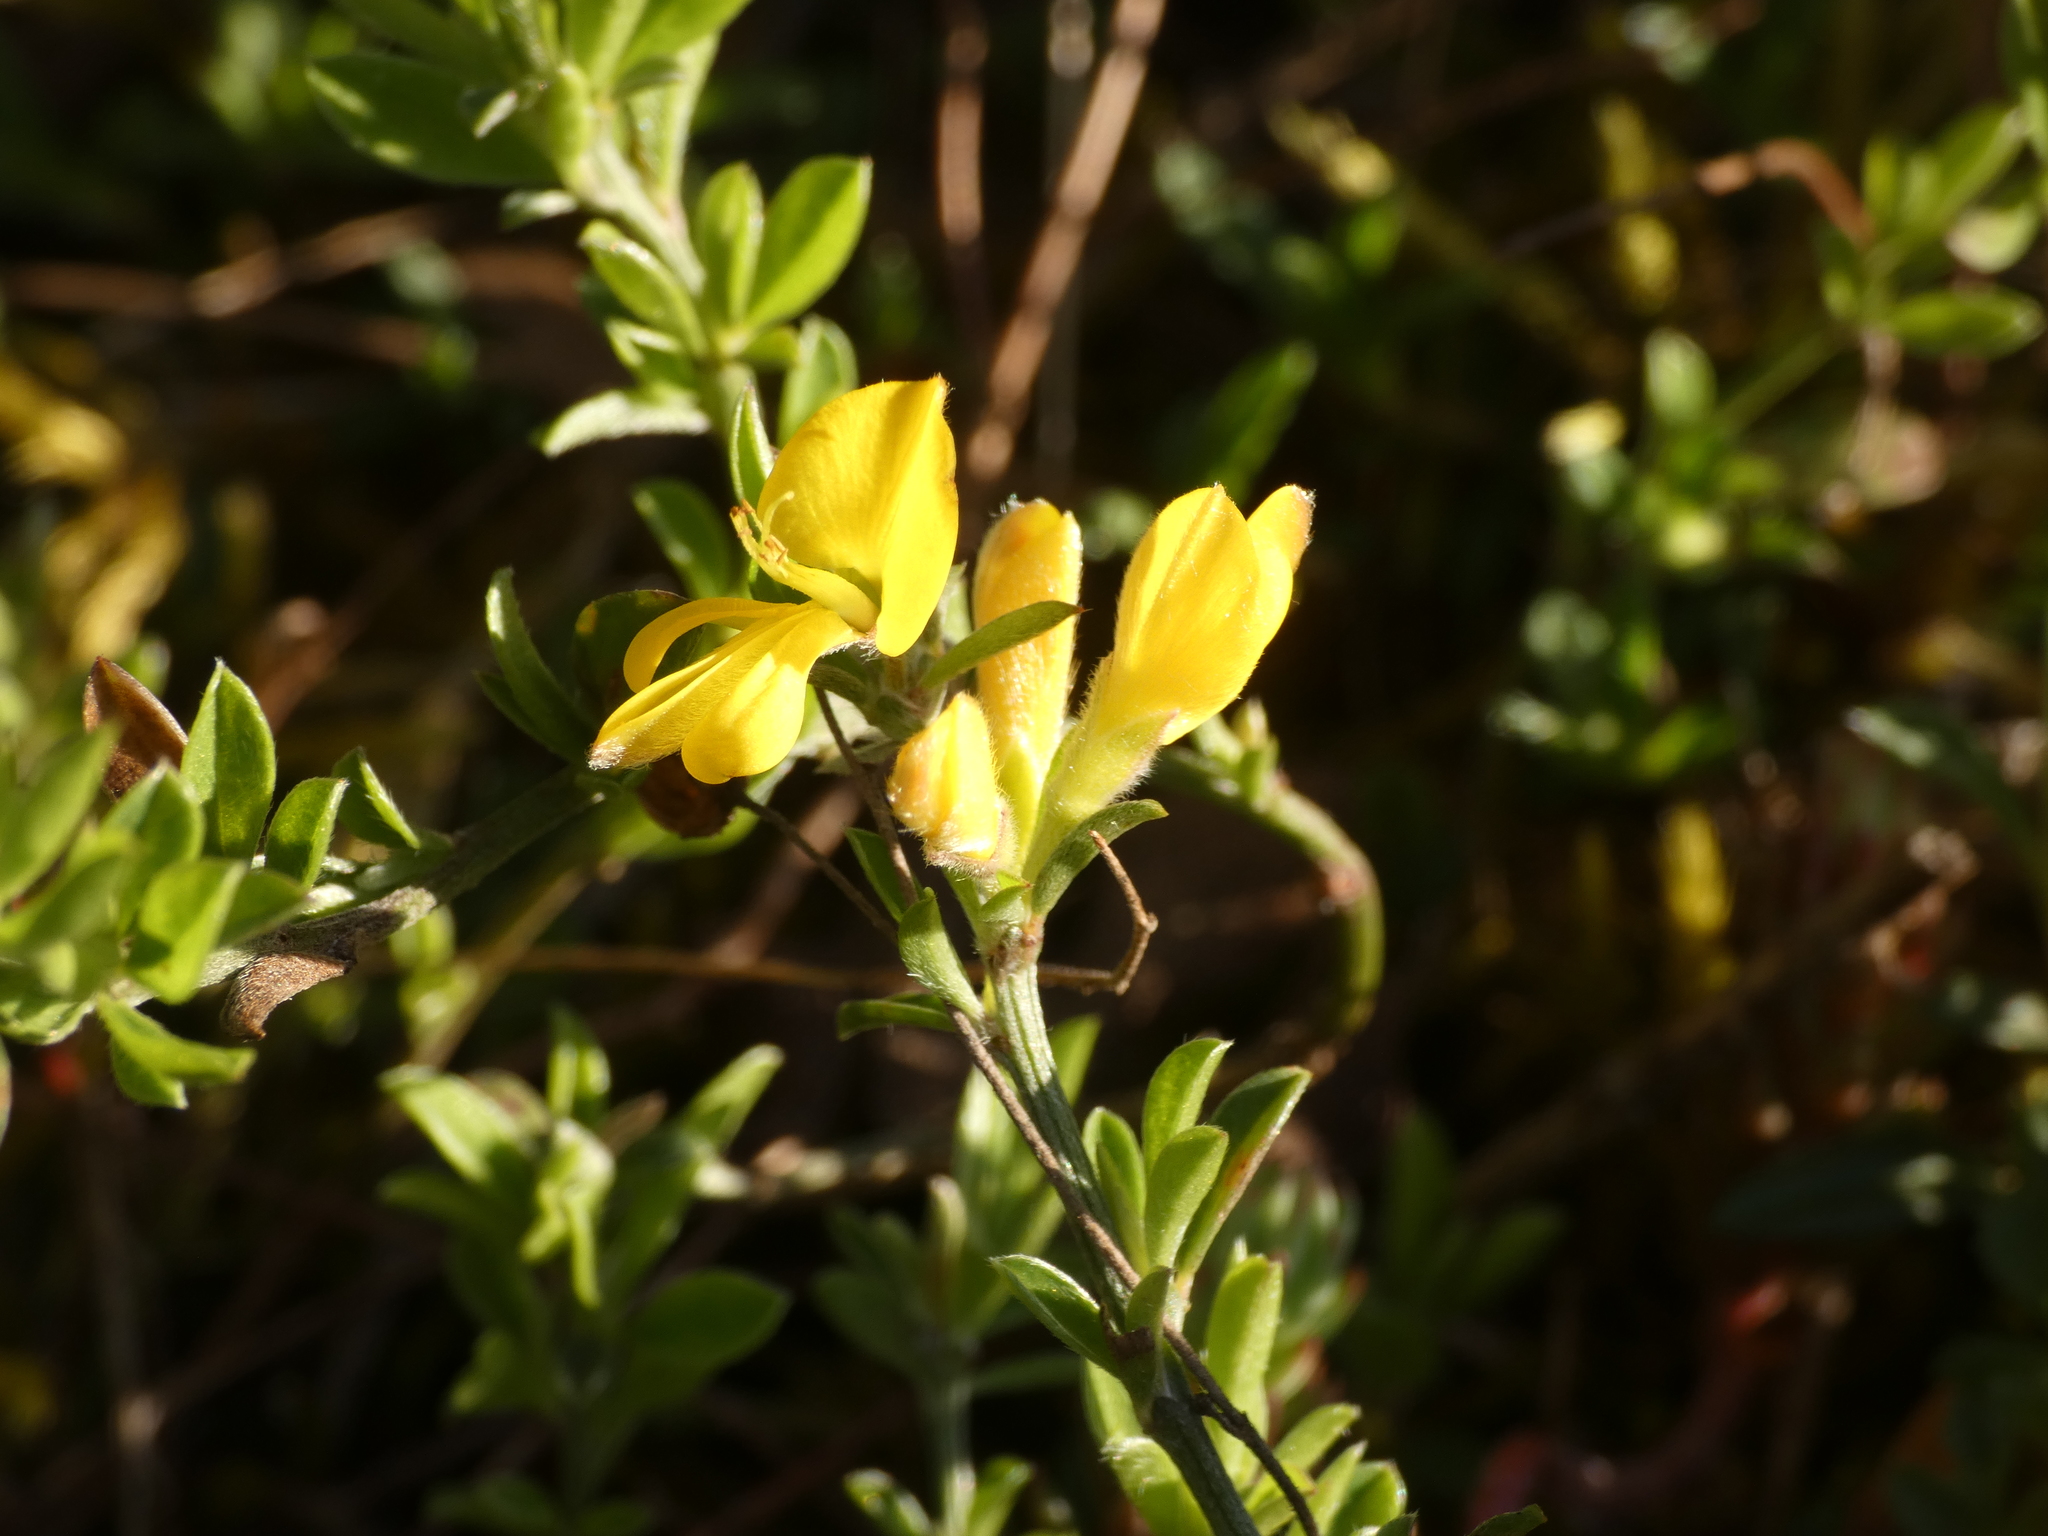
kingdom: Plantae
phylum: Tracheophyta
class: Magnoliopsida
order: Fabales
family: Fabaceae
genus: Genista
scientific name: Genista pilosa
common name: Hairy greenweed
